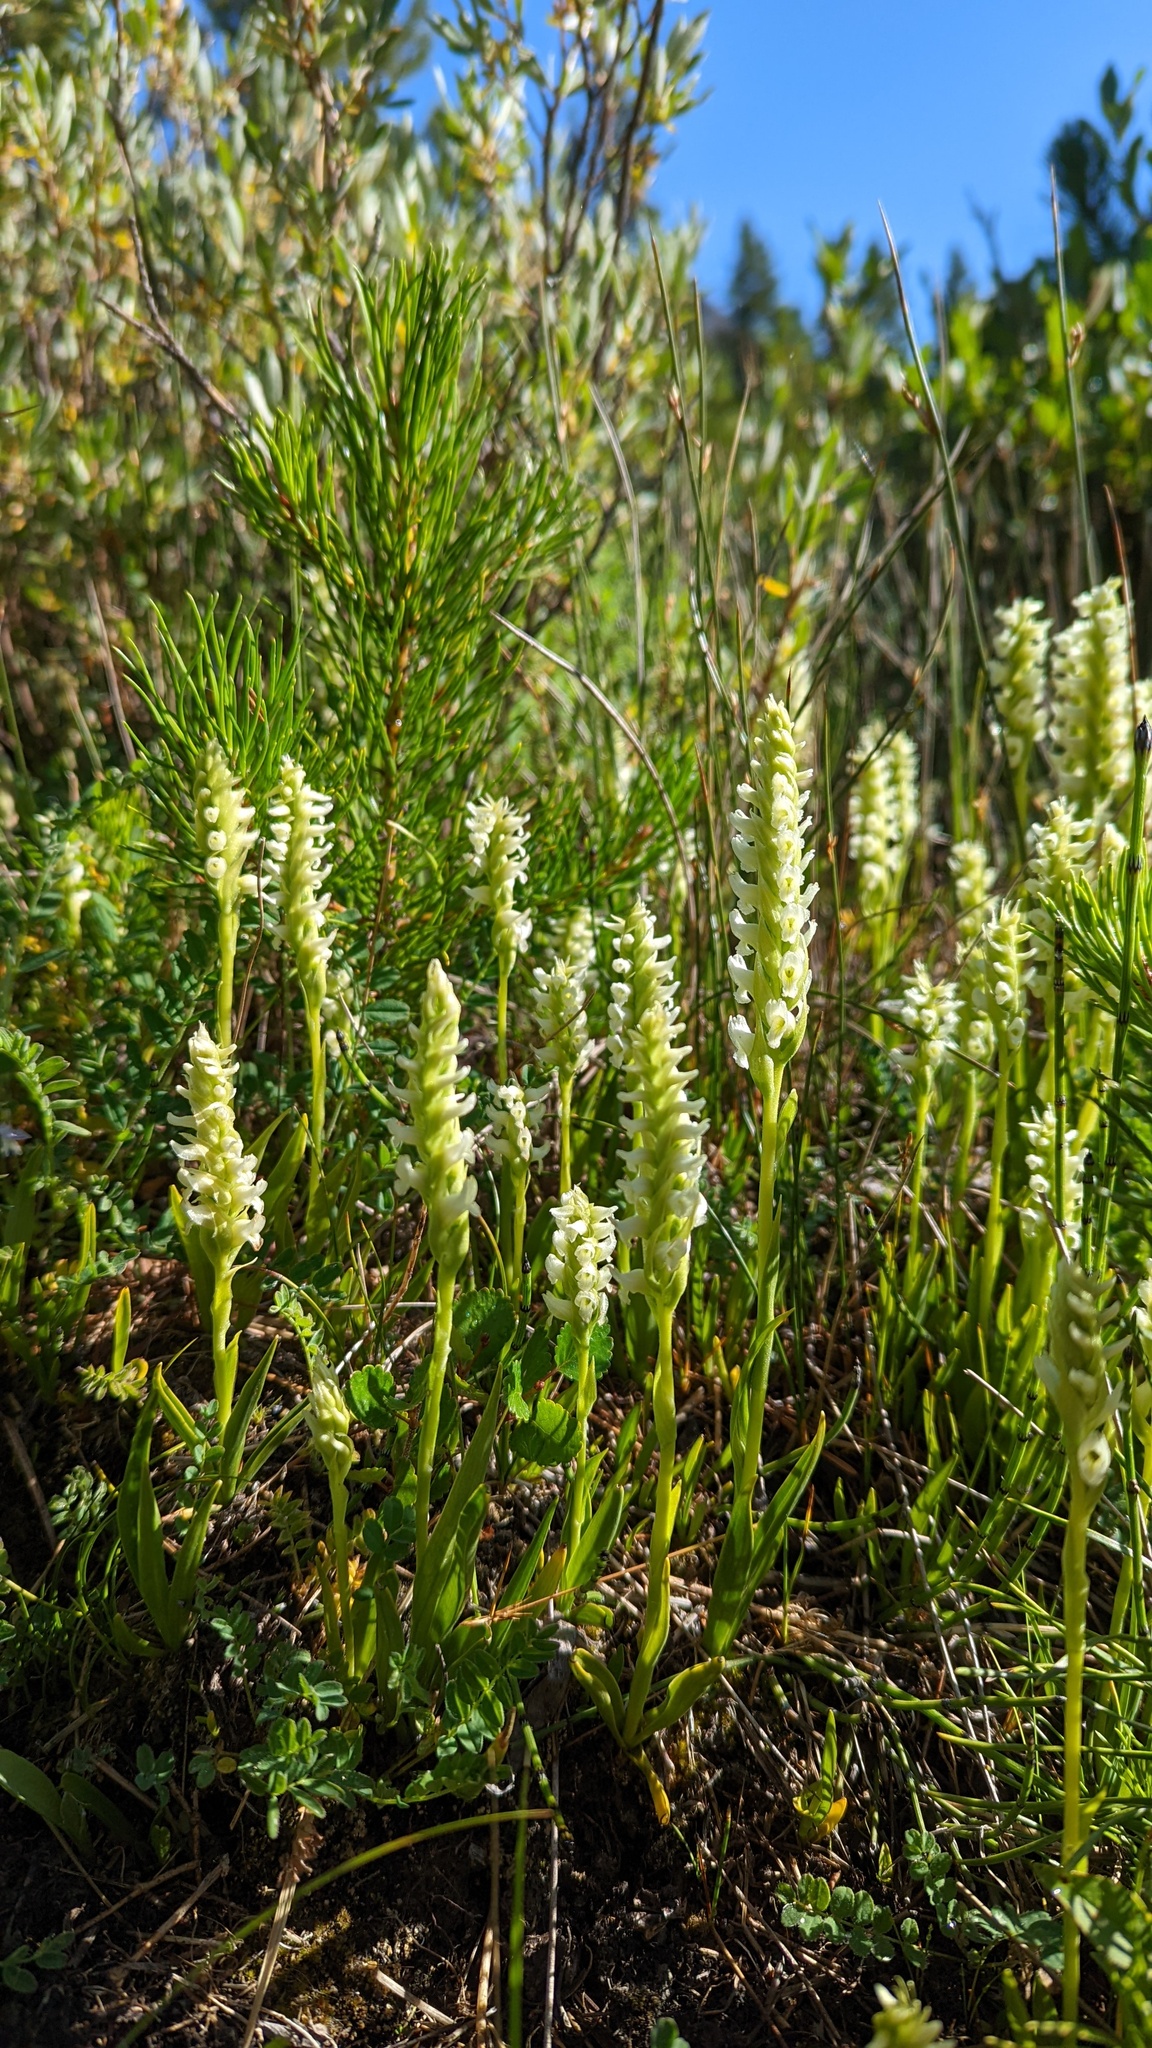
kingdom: Plantae
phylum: Tracheophyta
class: Liliopsida
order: Asparagales
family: Orchidaceae
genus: Spiranthes
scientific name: Spiranthes romanzoffiana
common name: Irish lady's-tresses
